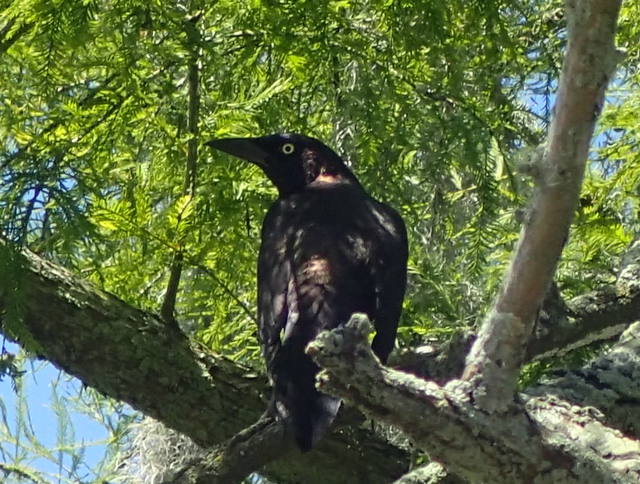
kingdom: Animalia
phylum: Chordata
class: Aves
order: Passeriformes
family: Icteridae
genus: Quiscalus
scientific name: Quiscalus quiscula
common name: Common grackle
